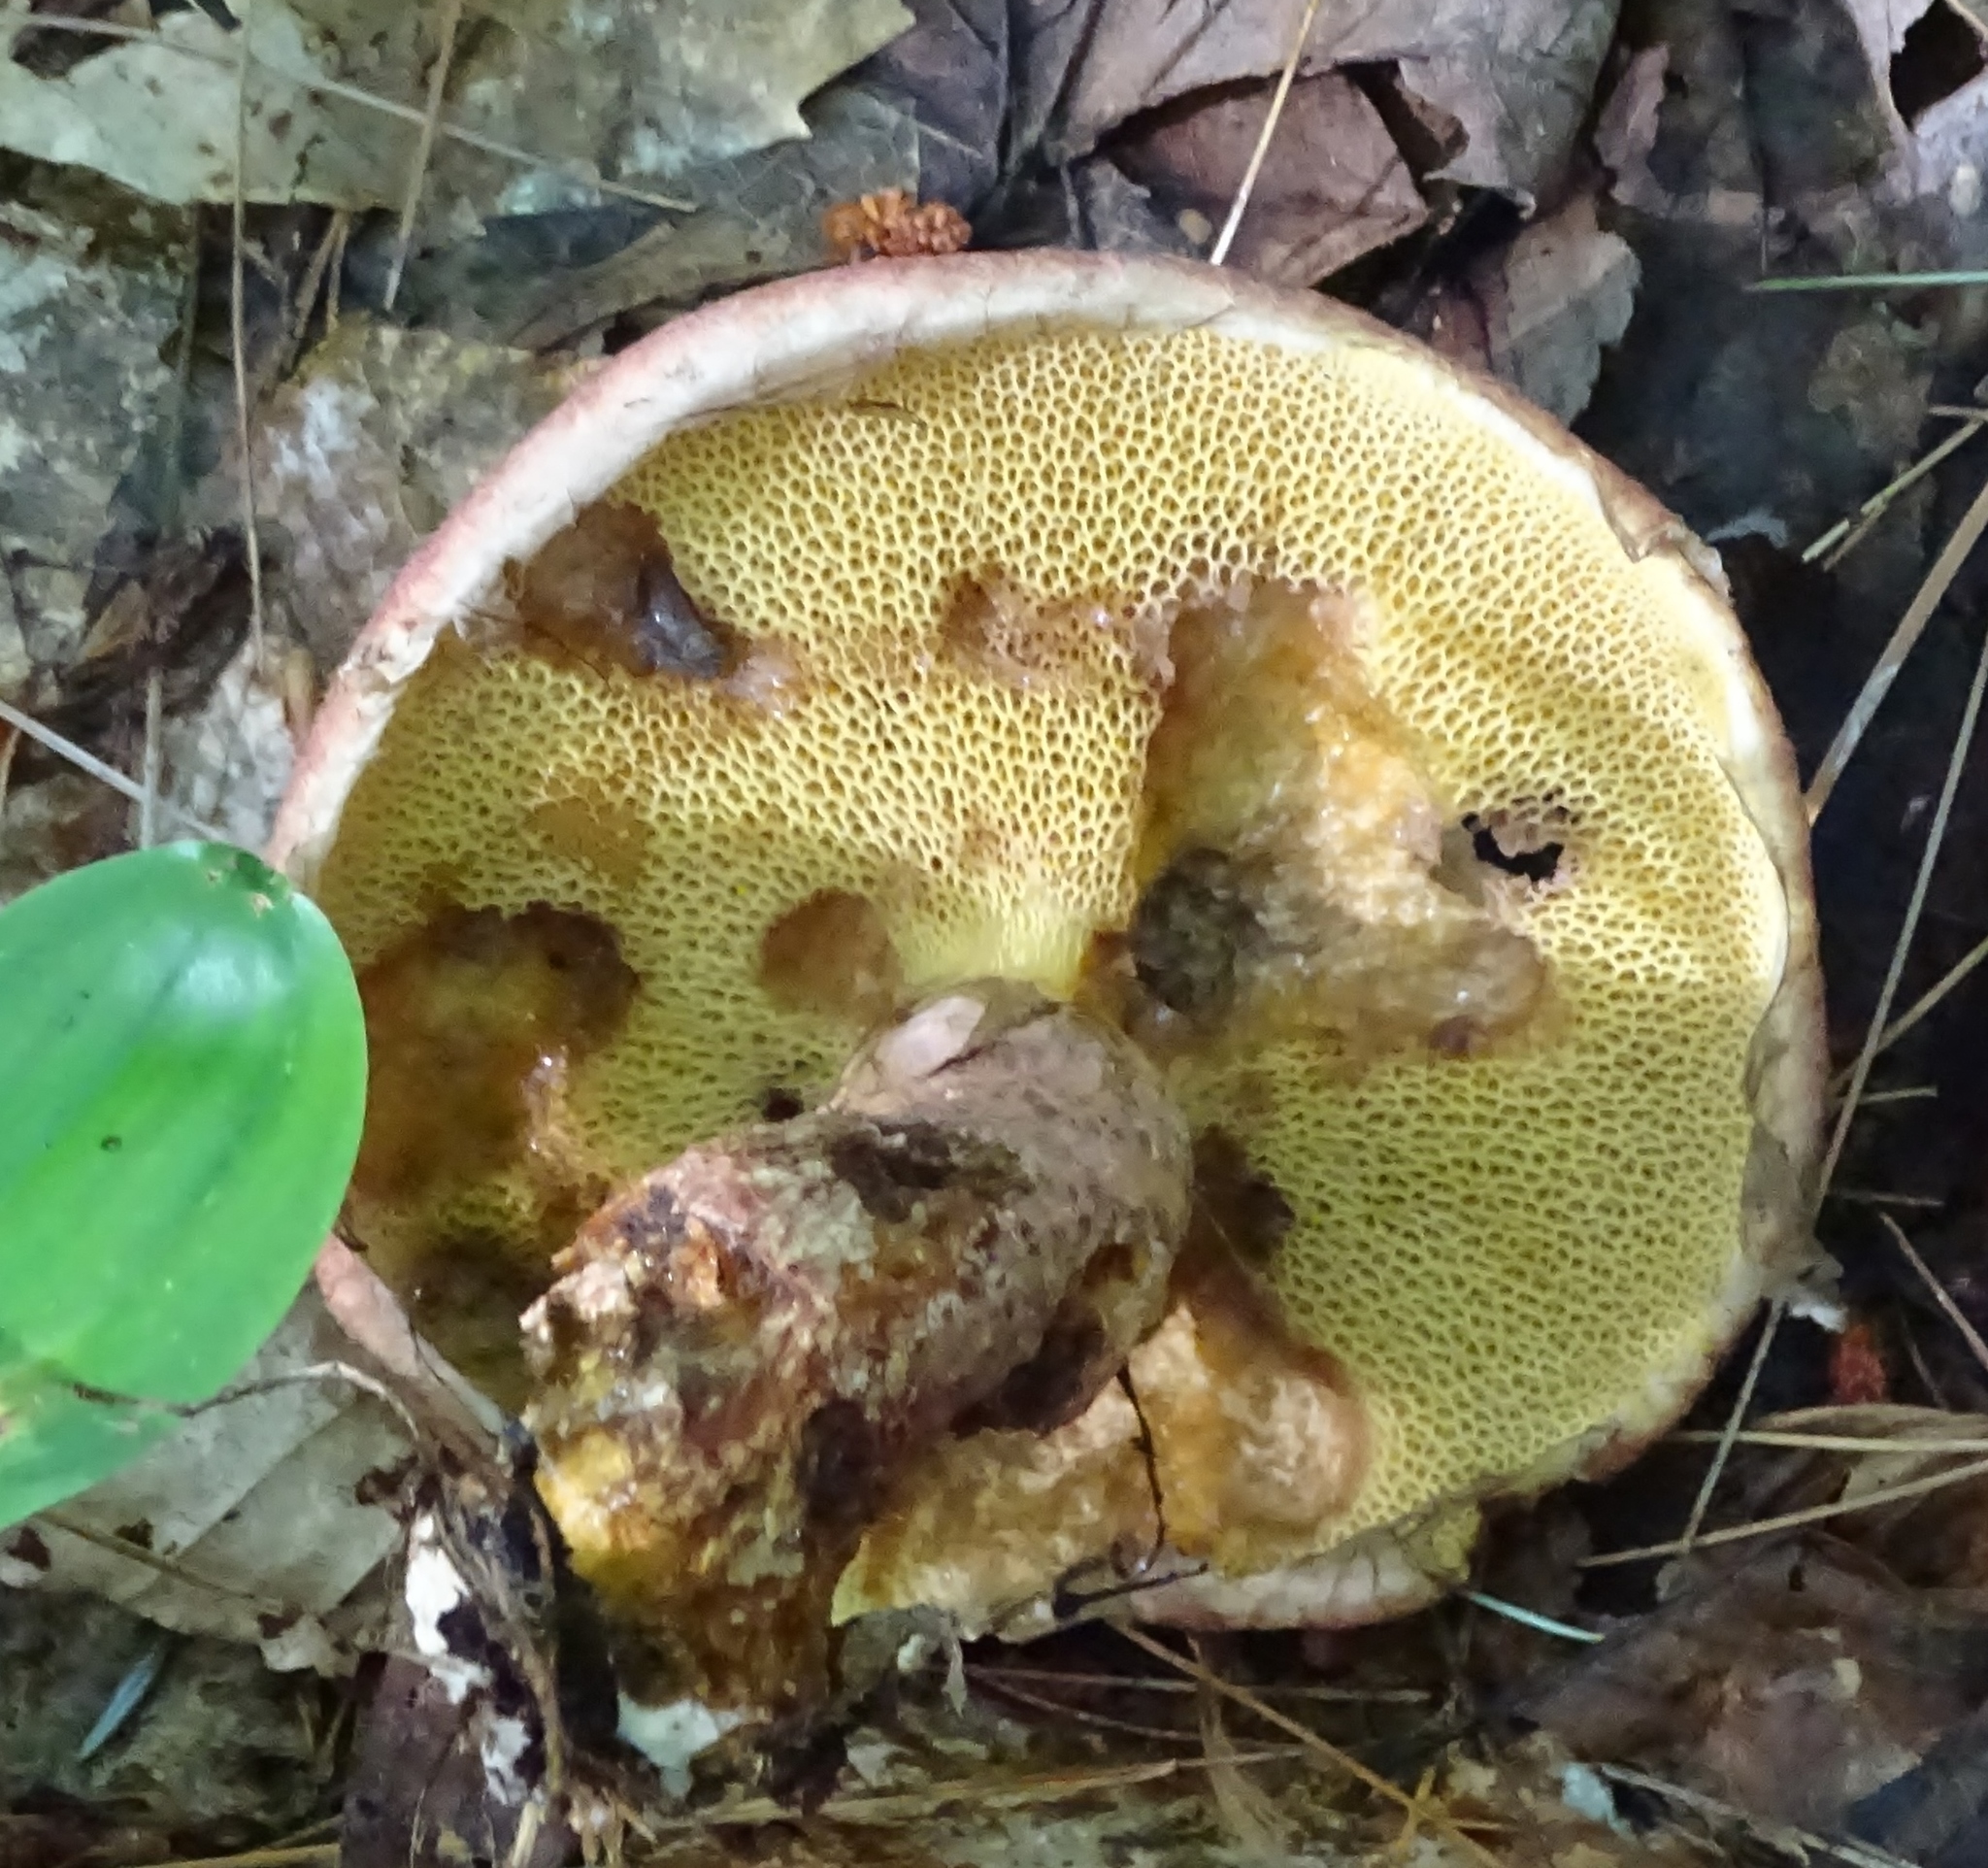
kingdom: Fungi
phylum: Basidiomycota
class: Agaricomycetes
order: Boletales
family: Suillaceae
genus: Suillus
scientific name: Suillus spraguei
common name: Painted suillus
